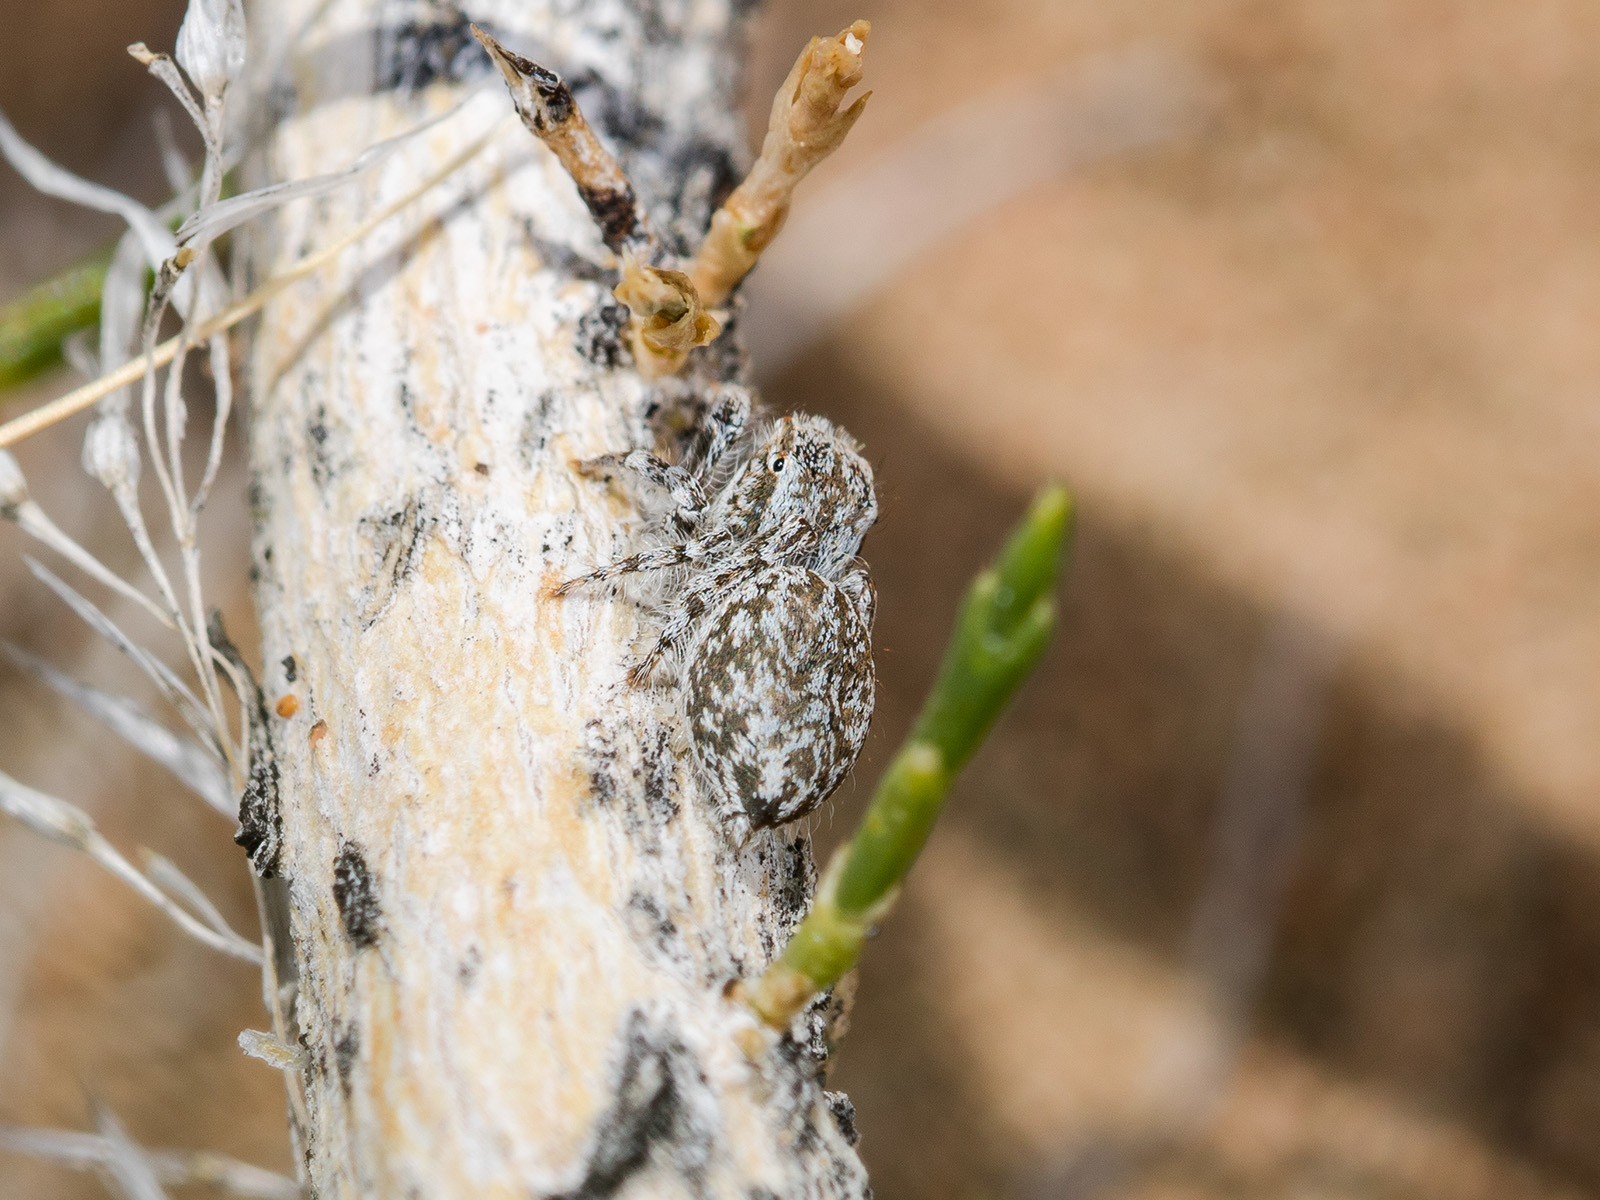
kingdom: Animalia
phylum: Arthropoda
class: Arachnida
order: Araneae
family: Salticidae
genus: Marusyllus
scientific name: Marusyllus aralicus
